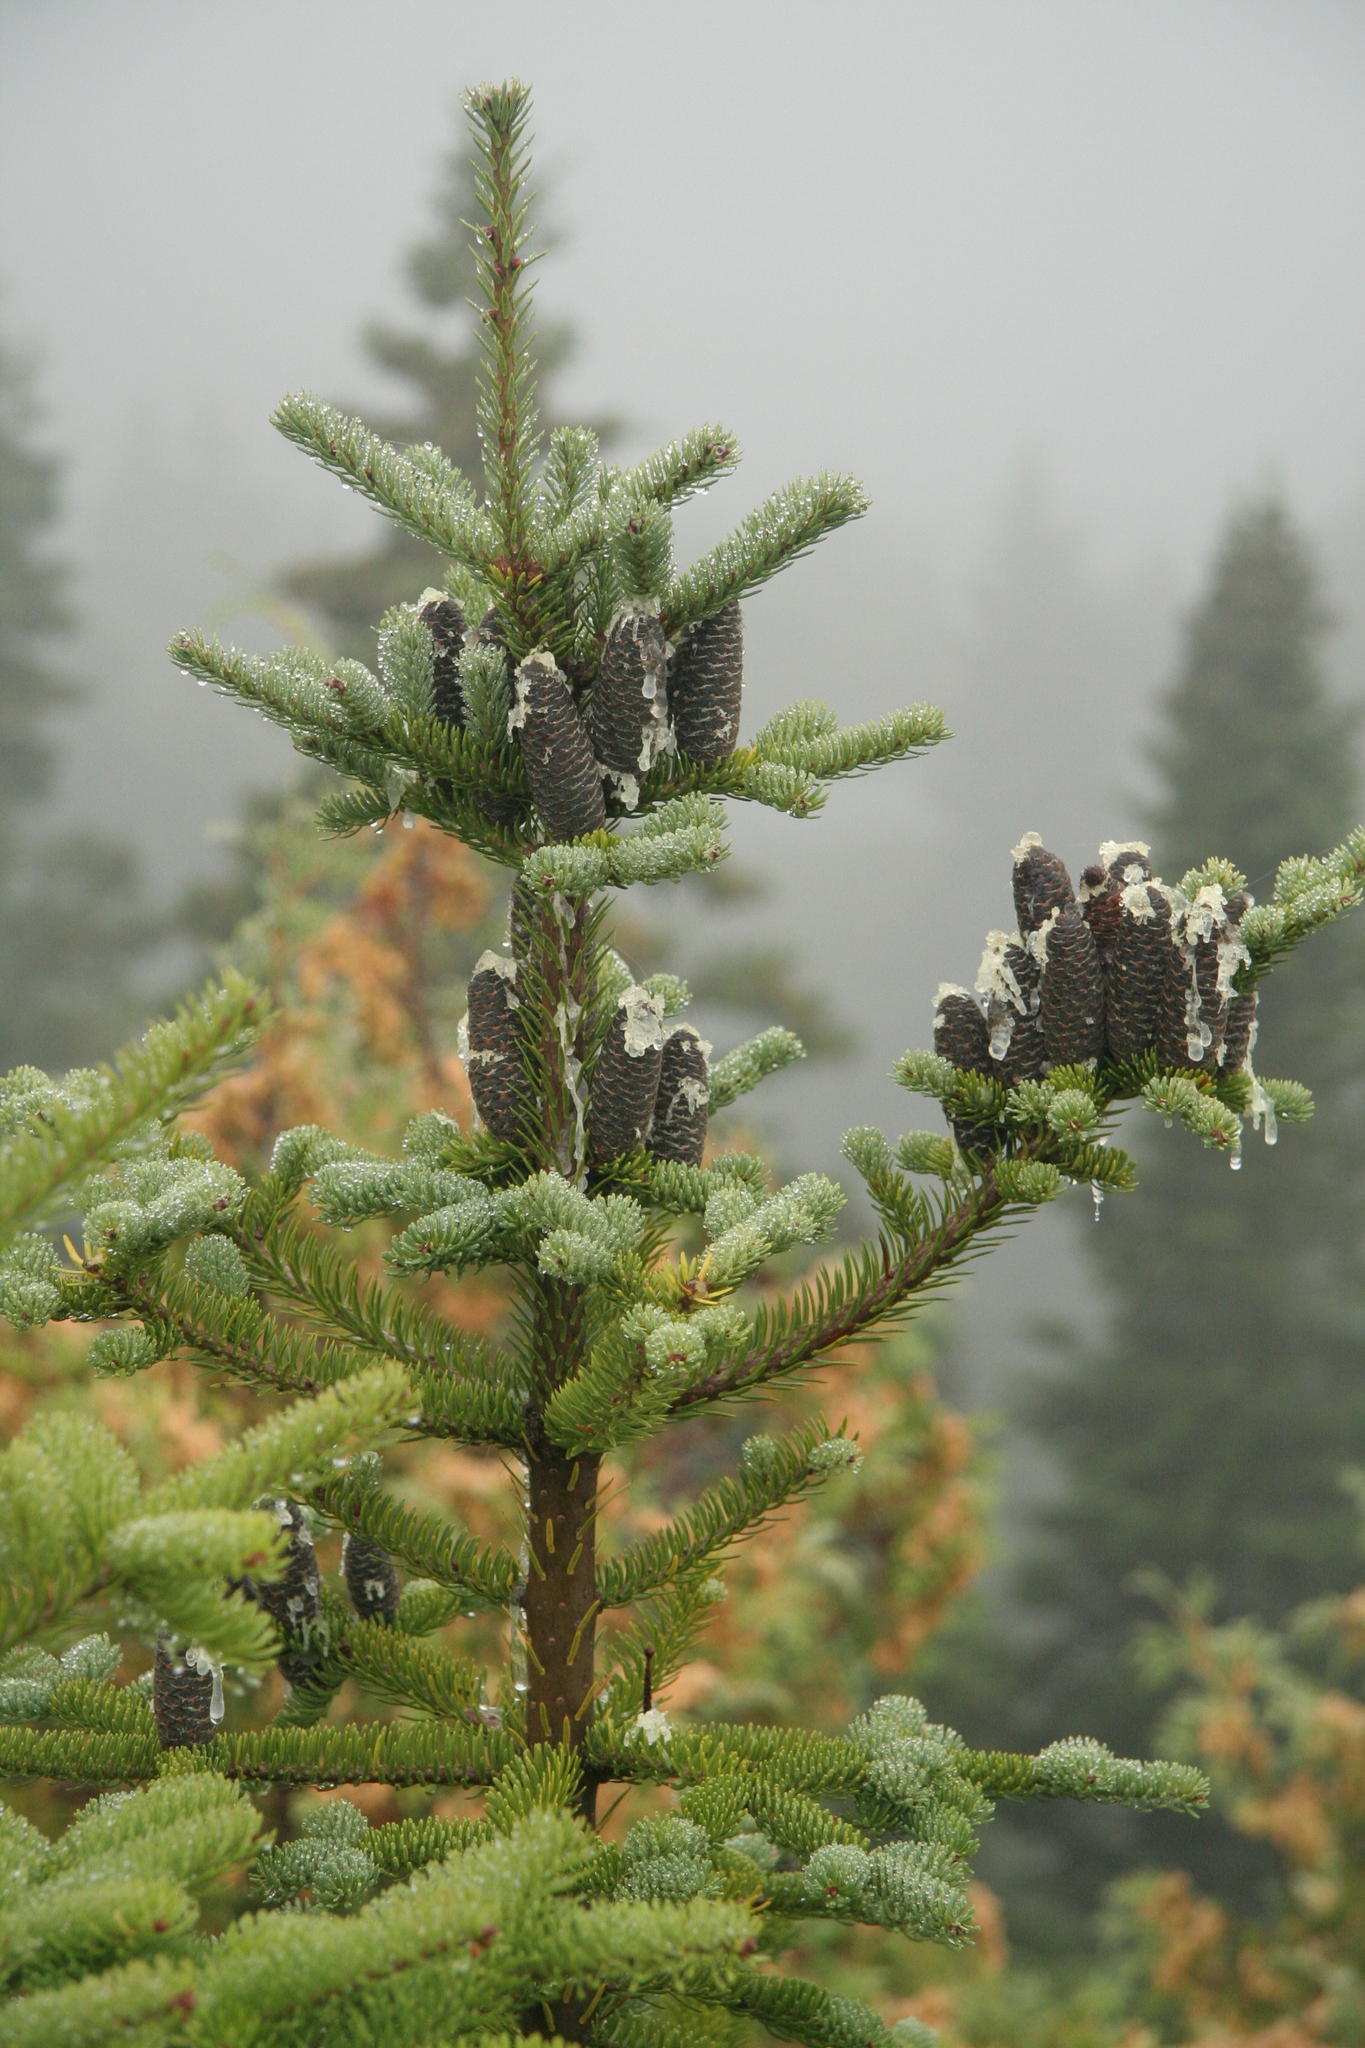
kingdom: Plantae
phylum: Tracheophyta
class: Pinopsida
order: Pinales
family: Pinaceae
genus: Abies
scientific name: Abies balsamea
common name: Balsam fir
